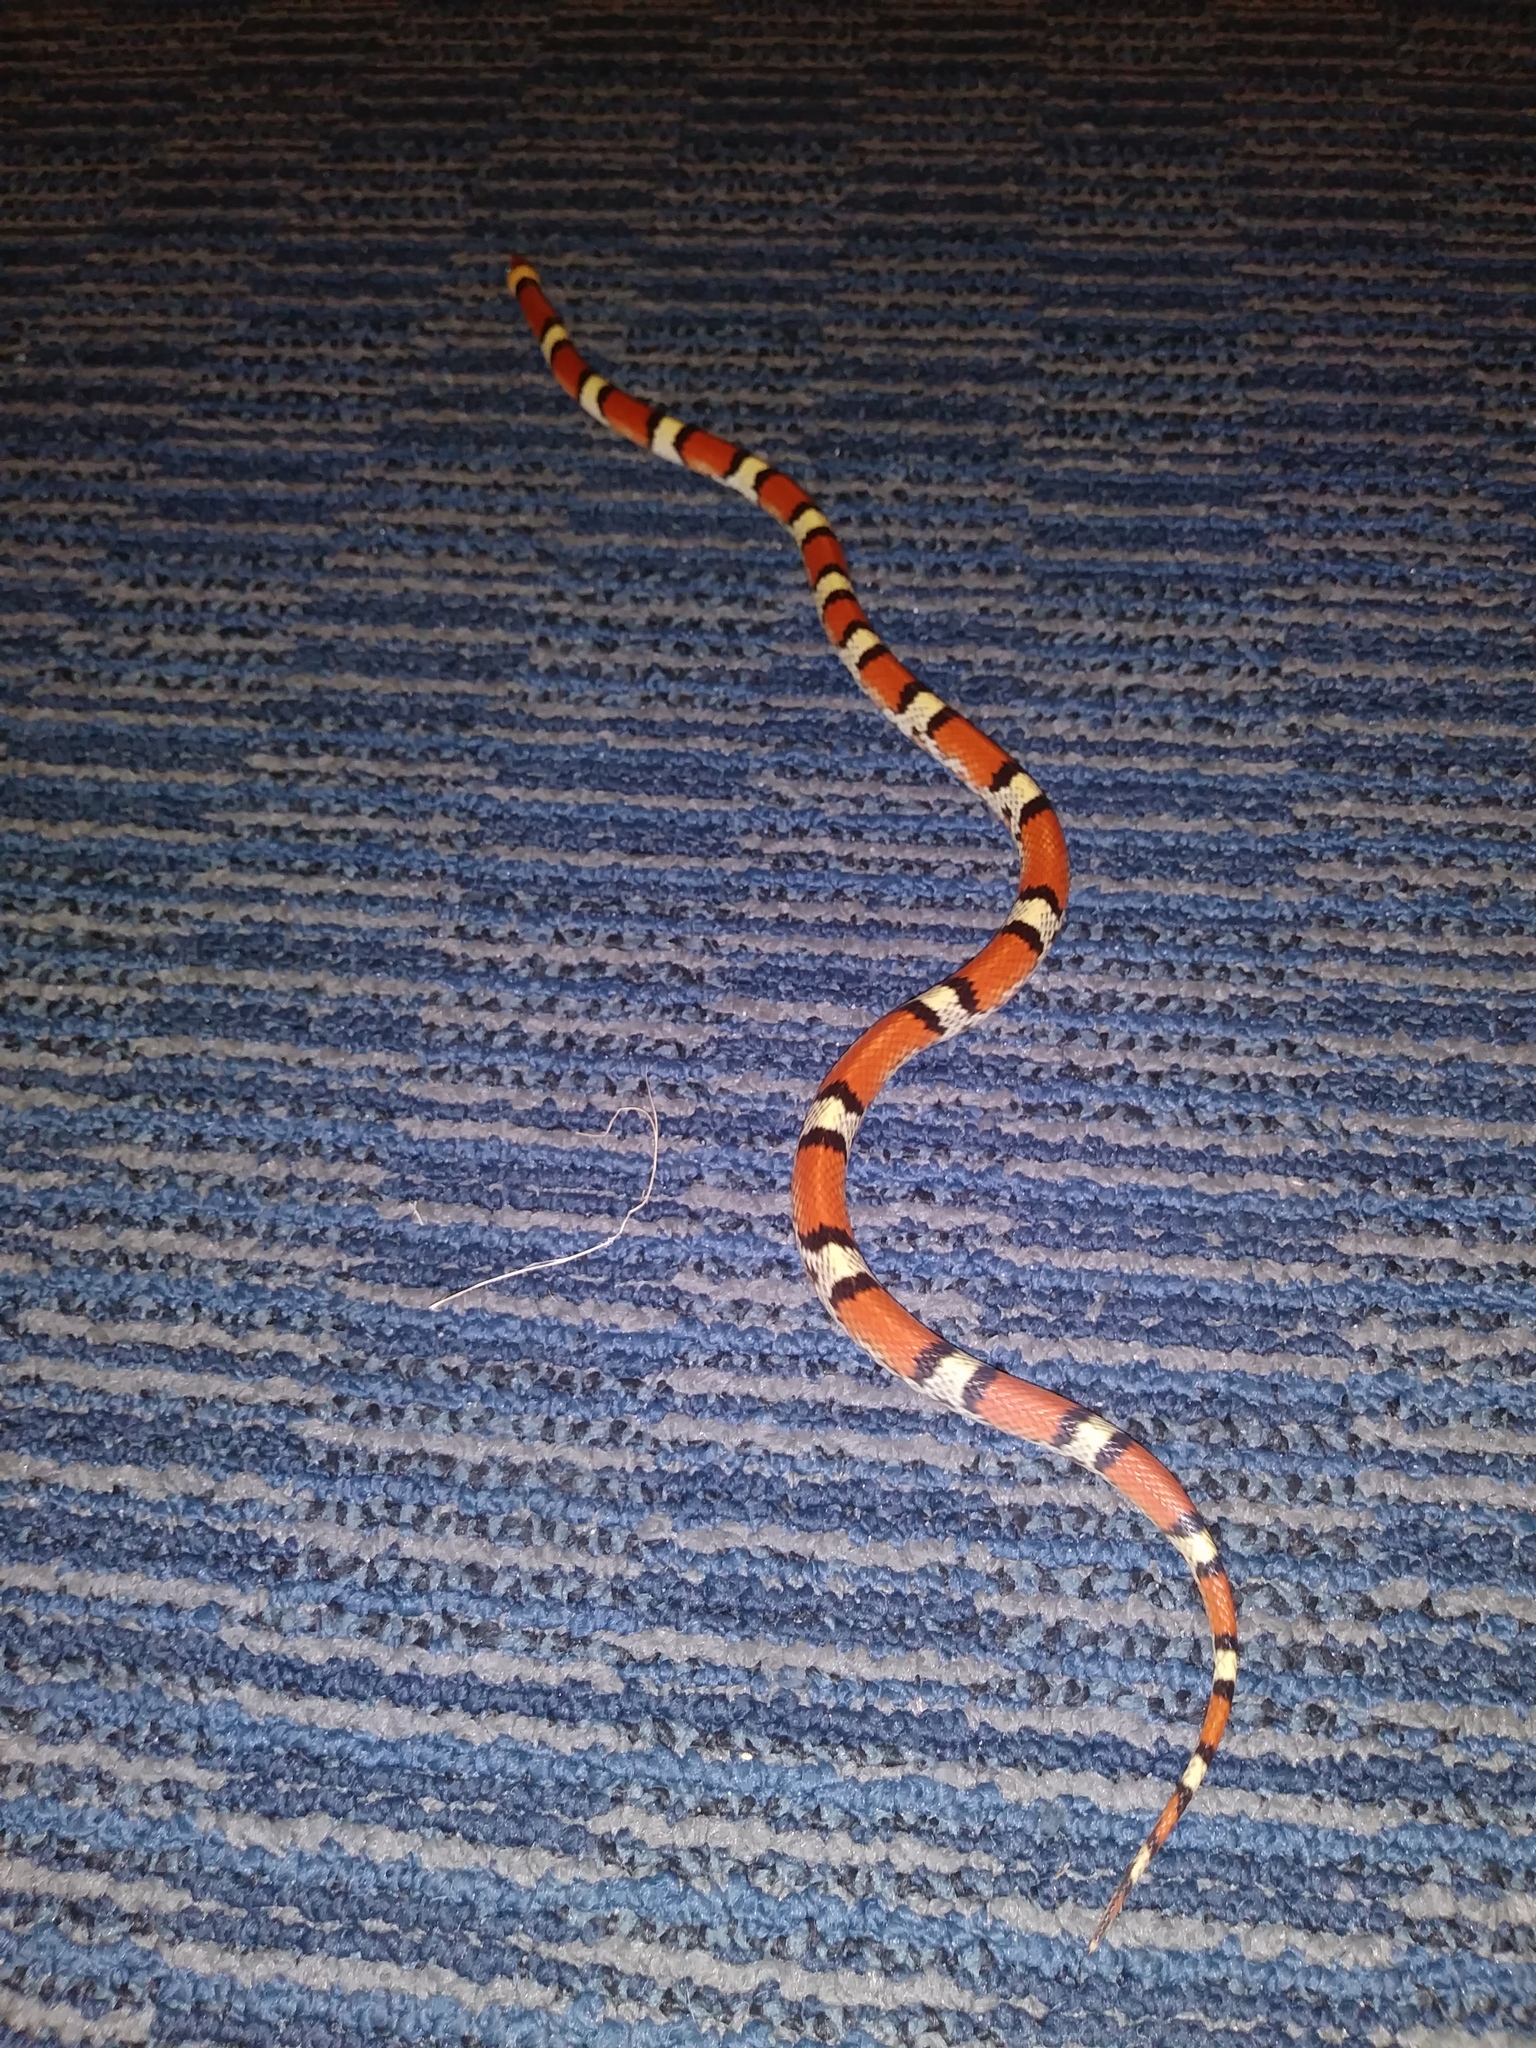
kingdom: Animalia
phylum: Chordata
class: Squamata
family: Colubridae
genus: Cemophora
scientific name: Cemophora coccinea
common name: Scarlet snake
